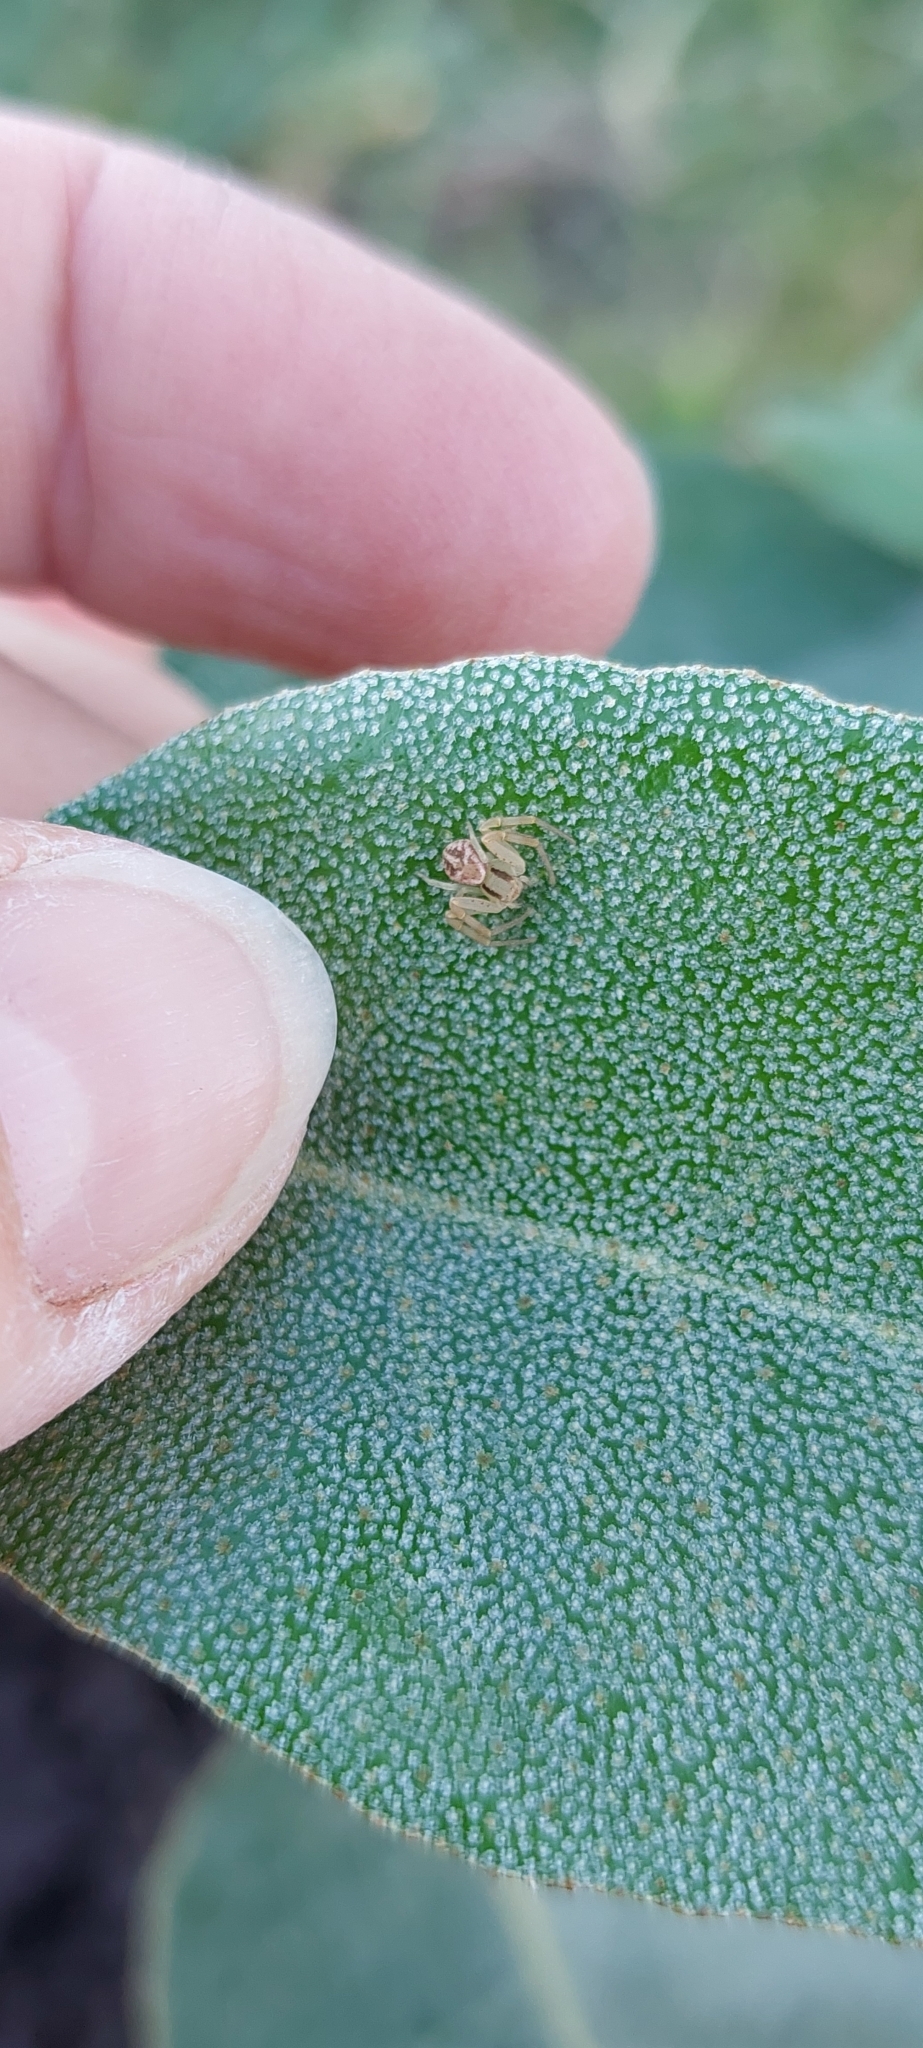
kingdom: Animalia
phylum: Arthropoda
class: Arachnida
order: Araneae
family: Thomisidae
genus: Misumenops
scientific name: Misumenops
